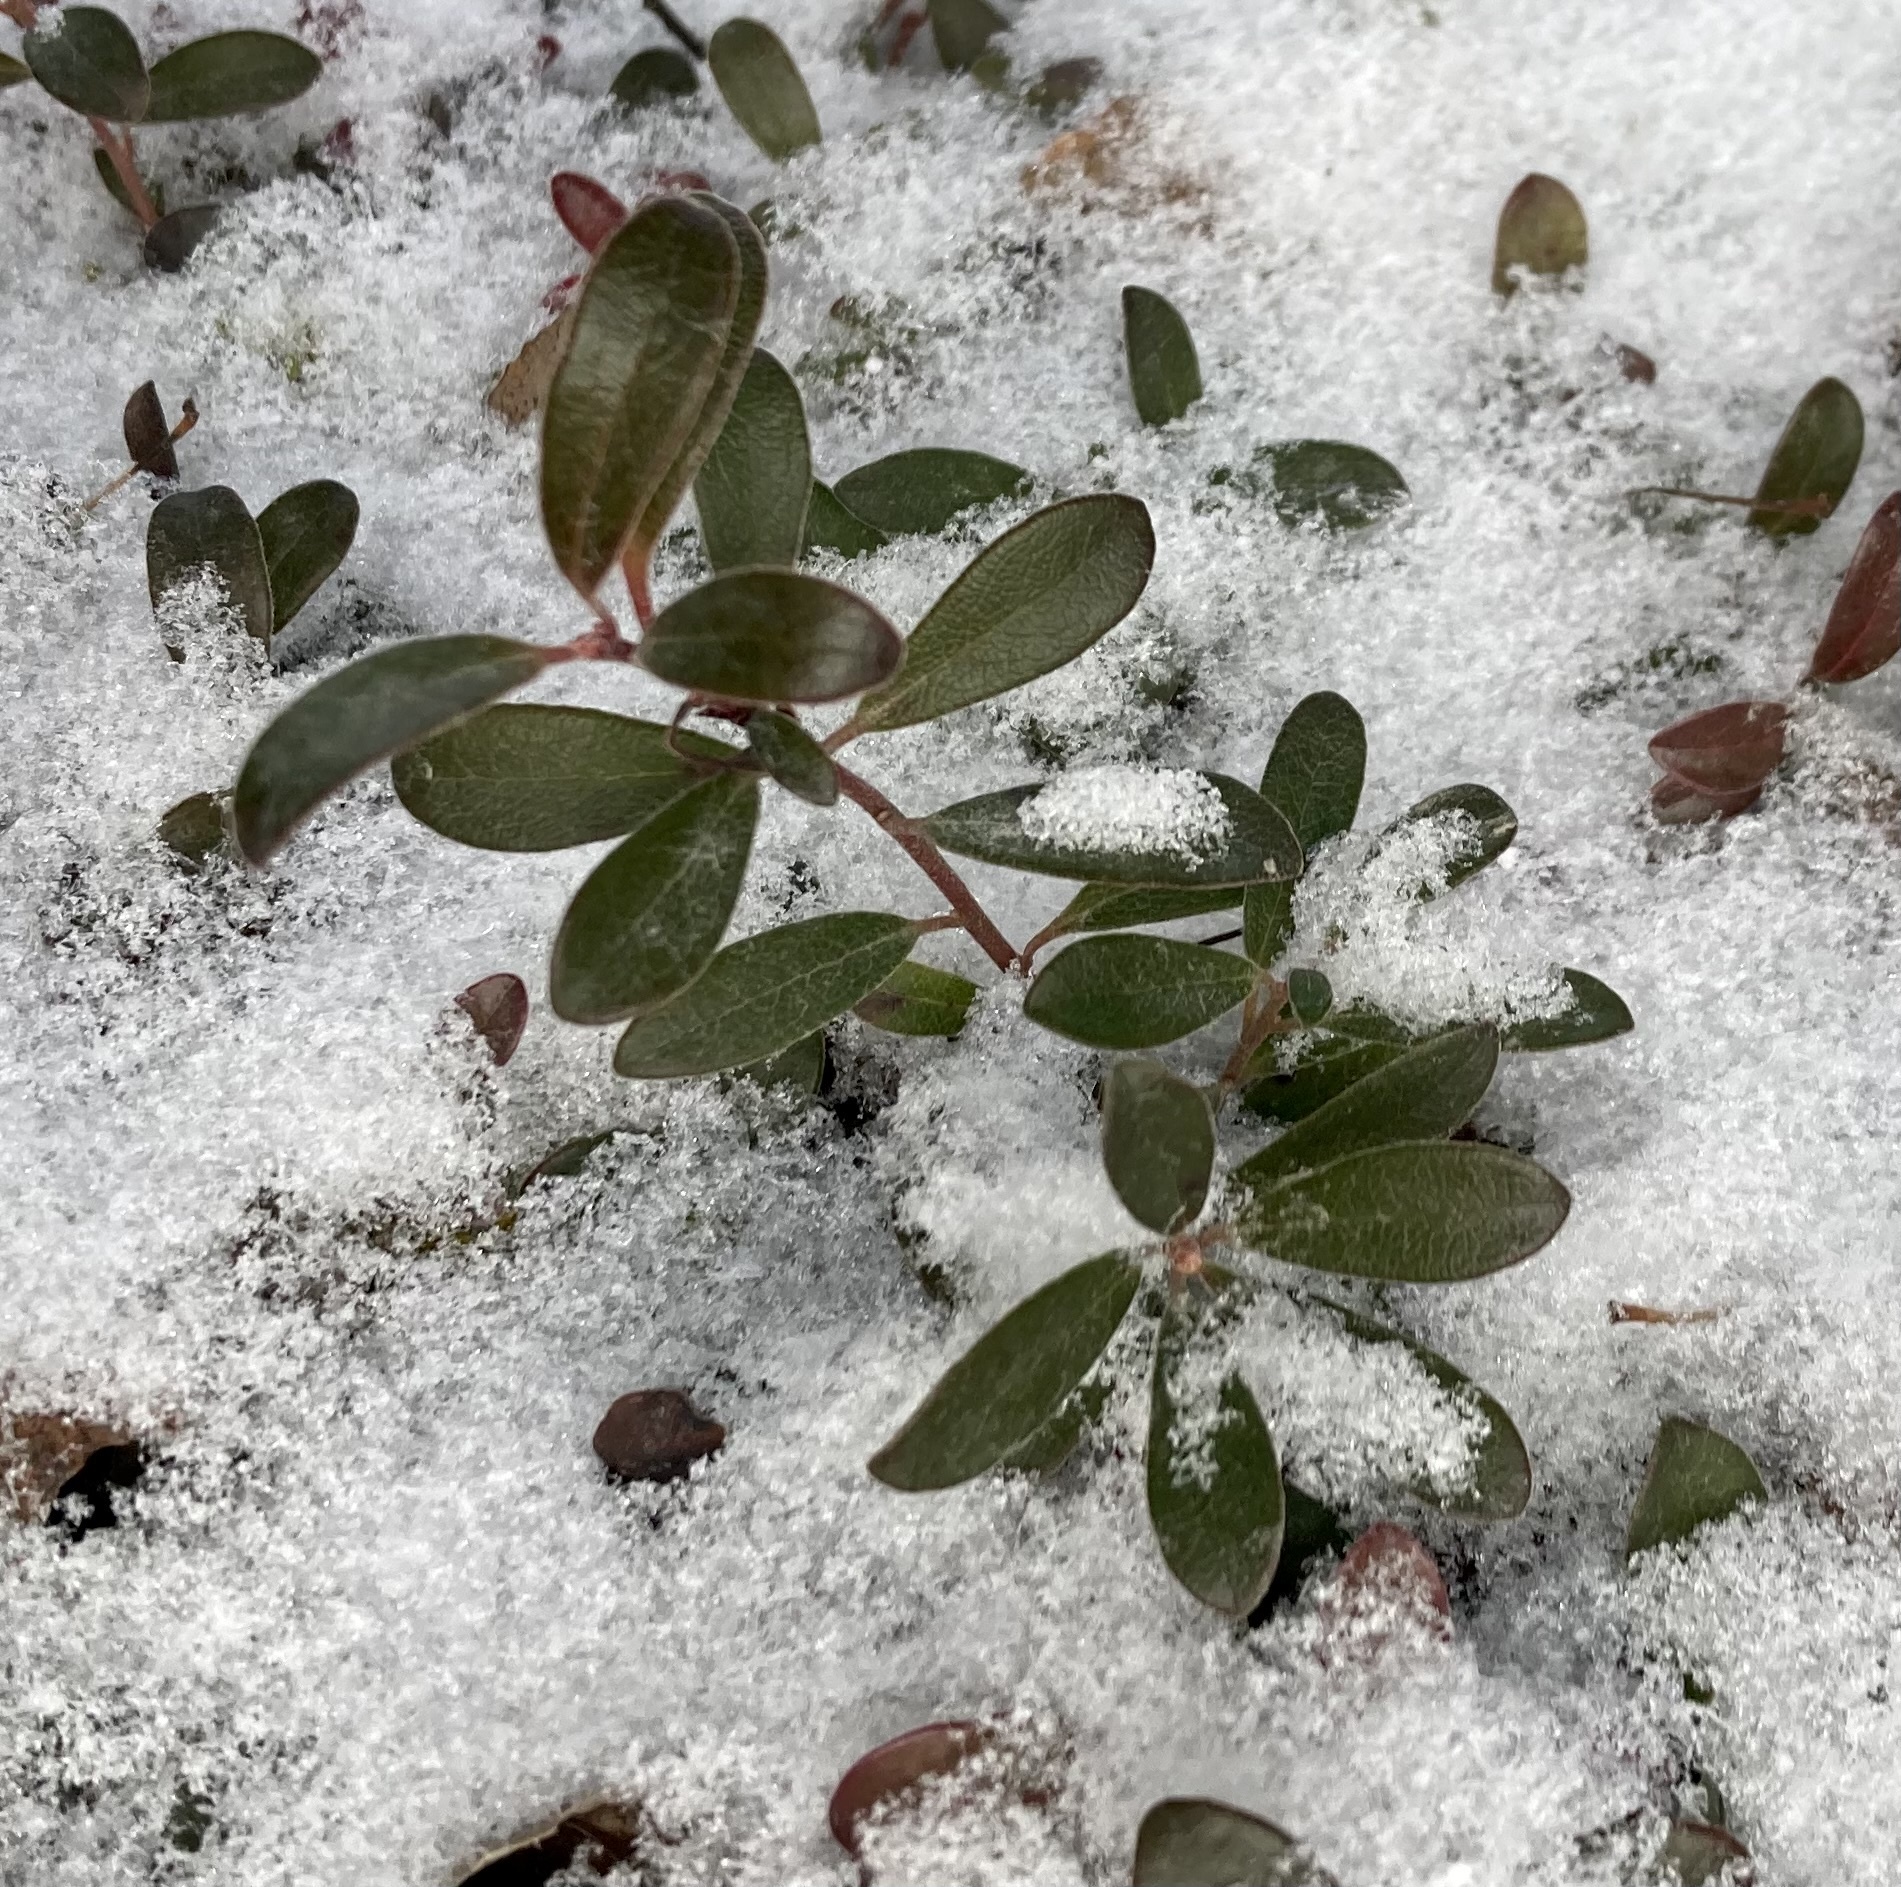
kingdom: Plantae
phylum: Tracheophyta
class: Magnoliopsida
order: Ericales
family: Ericaceae
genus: Arctostaphylos
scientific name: Arctostaphylos uva-ursi
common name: Bearberry
